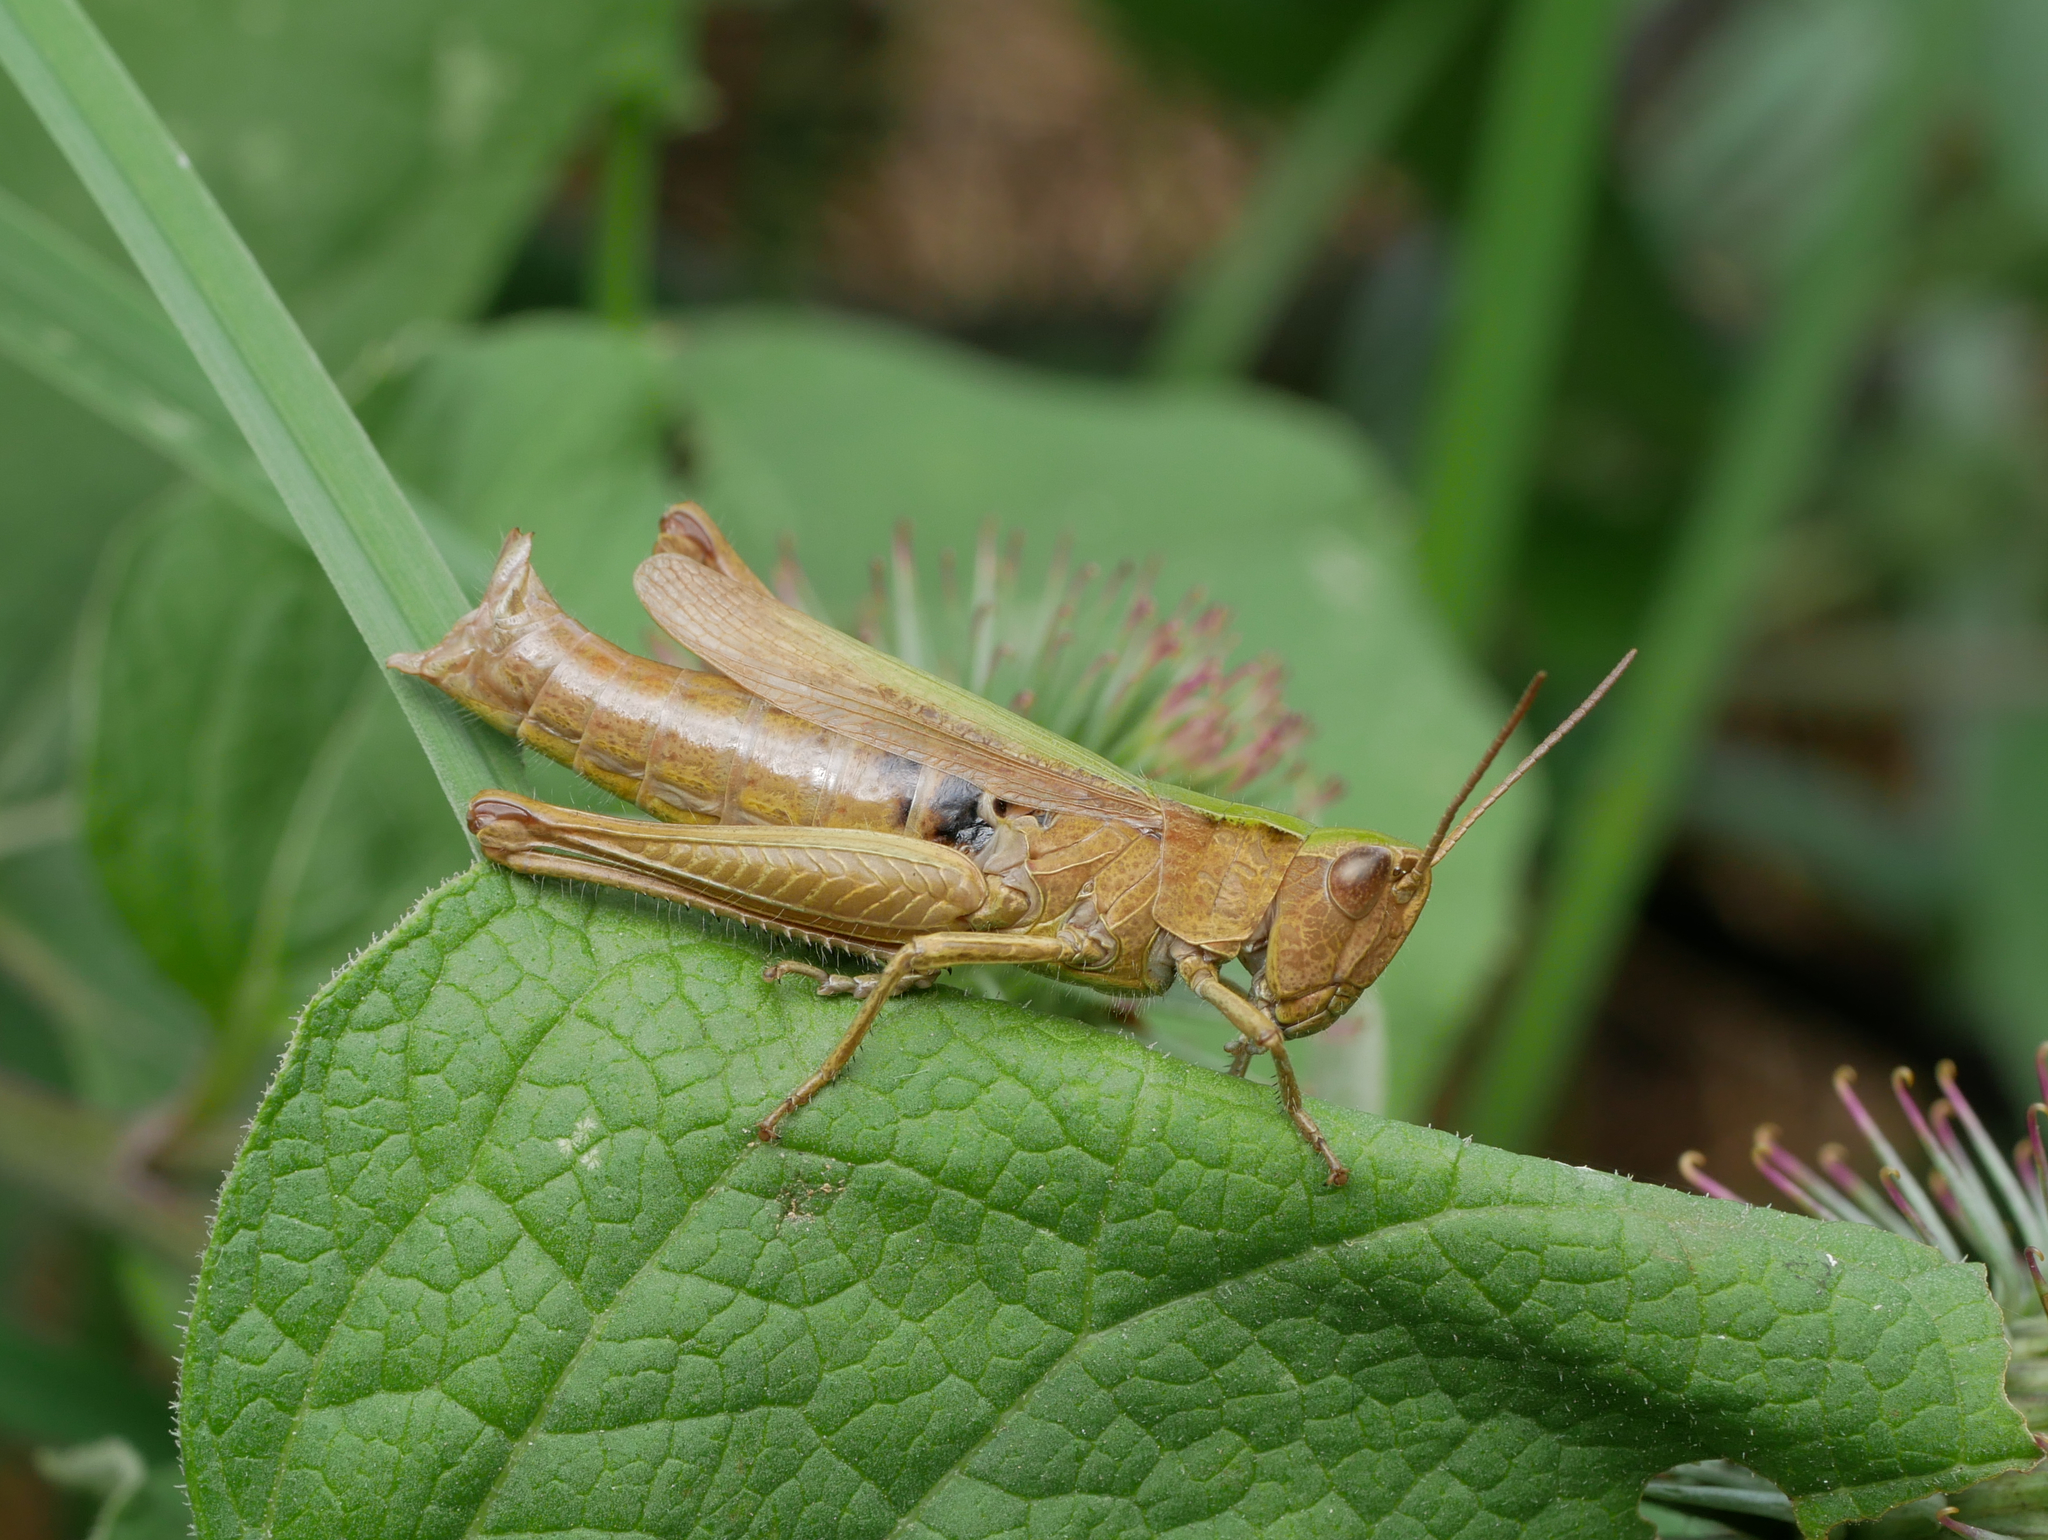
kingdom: Animalia
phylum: Arthropoda
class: Insecta
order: Orthoptera
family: Acrididae
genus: Chorthippus
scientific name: Chorthippus dorsatus
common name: Steppe grasshopper
